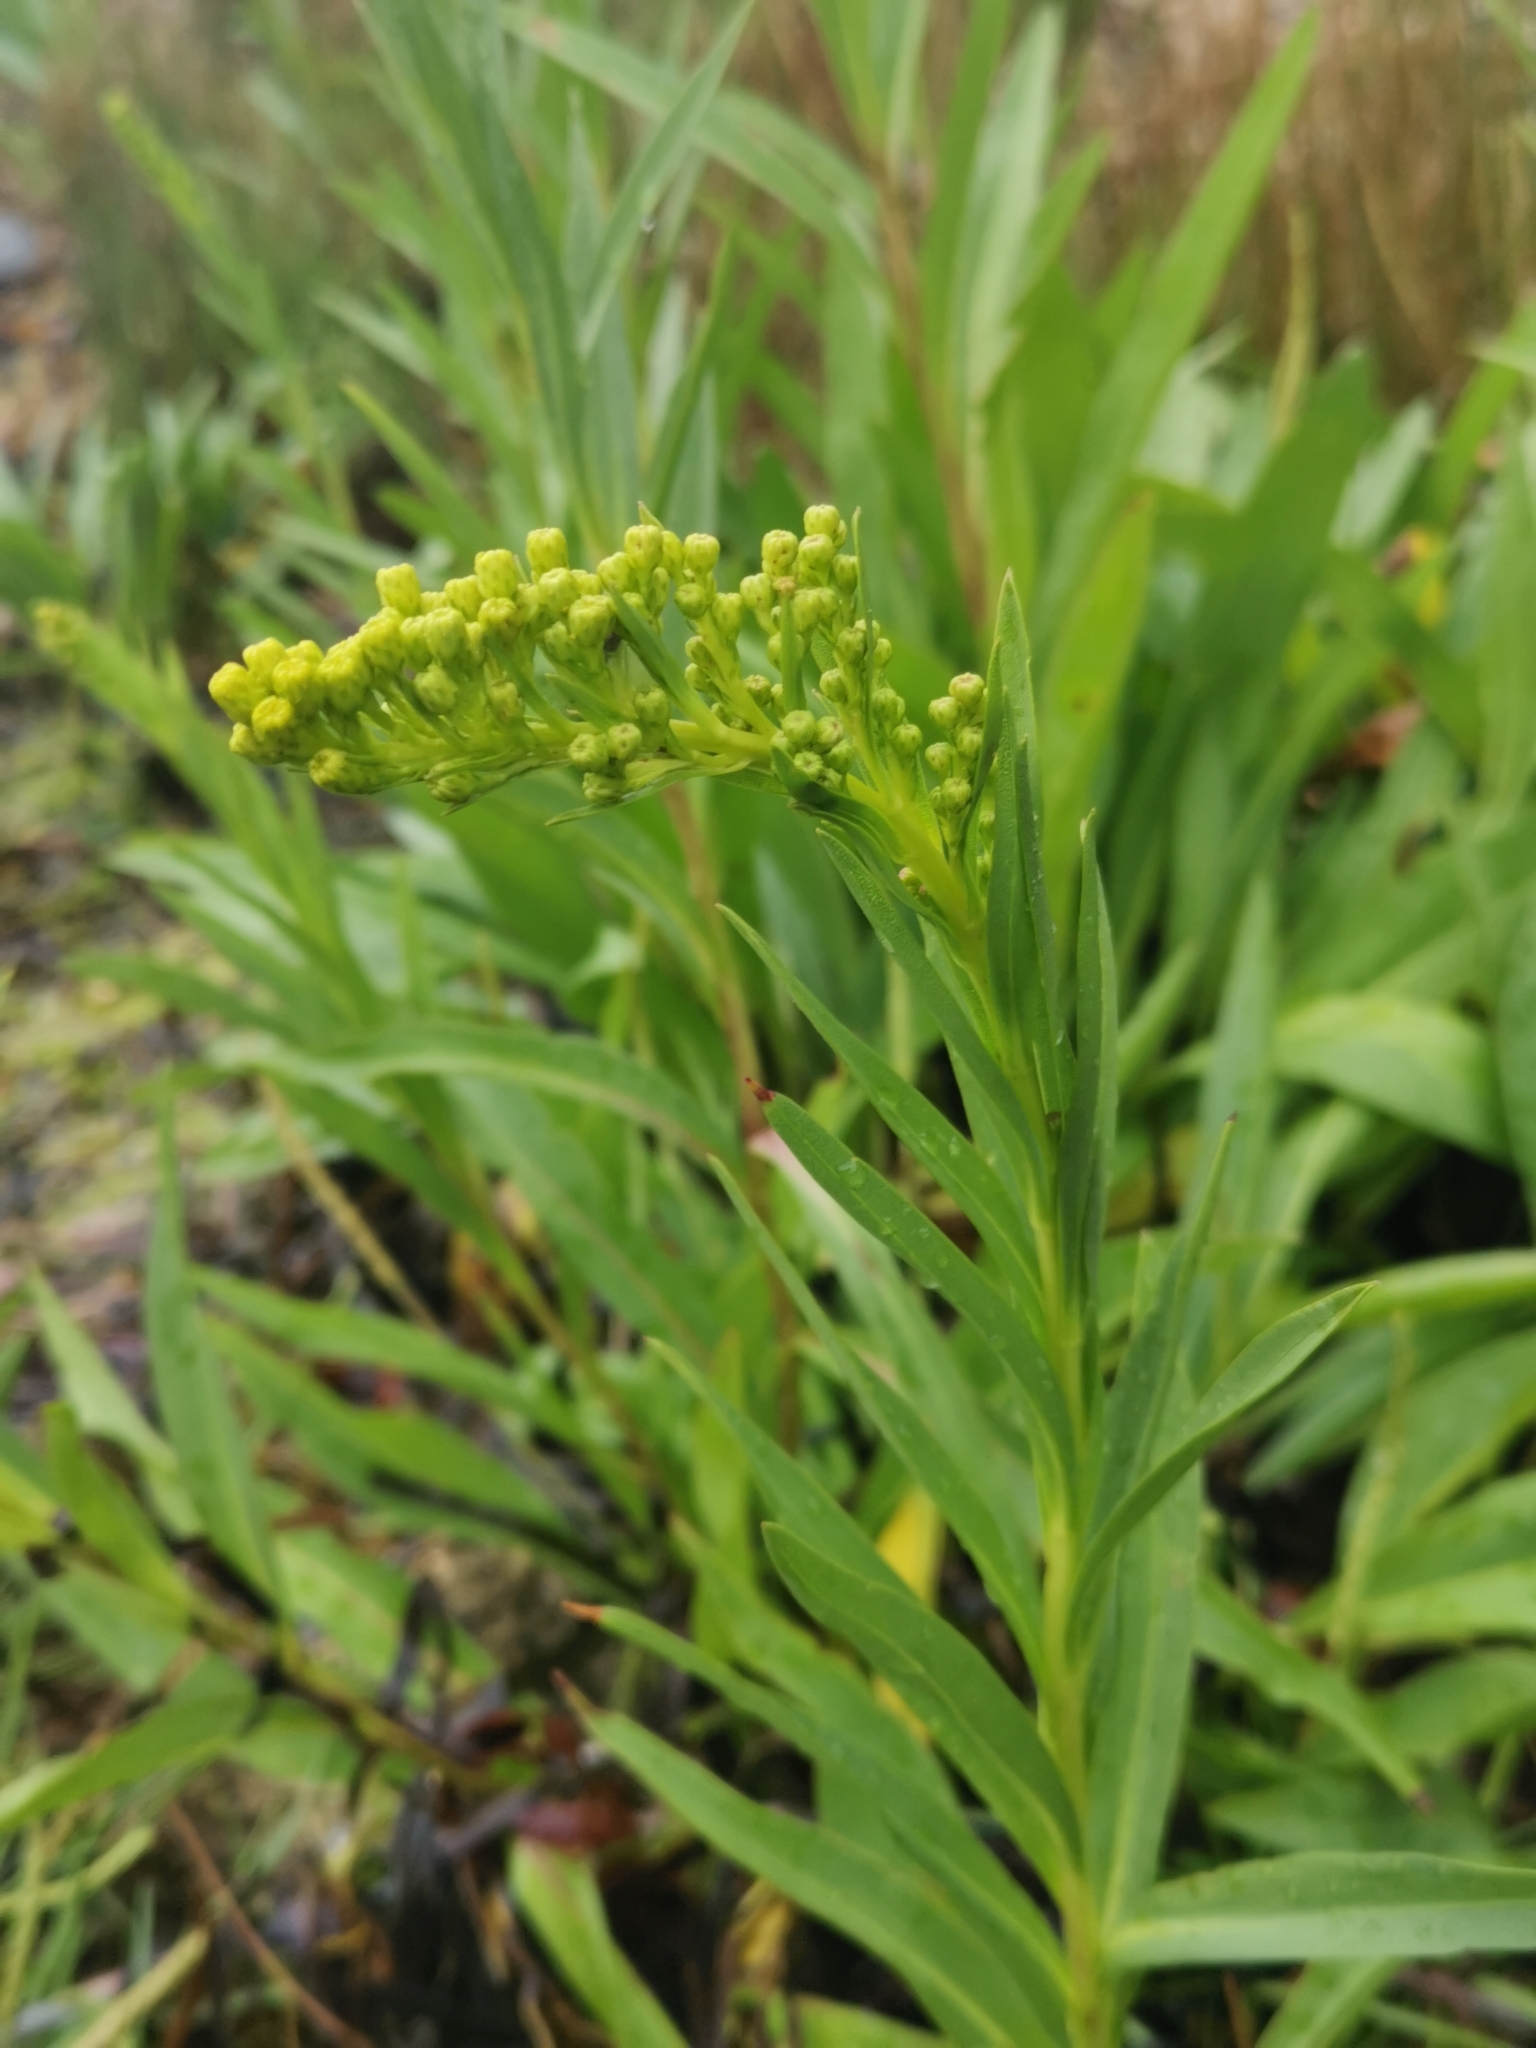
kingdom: Plantae
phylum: Tracheophyta
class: Magnoliopsida
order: Asterales
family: Asteraceae
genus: Solidago
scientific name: Solidago sempervirens
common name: Salt-marsh goldenrod
